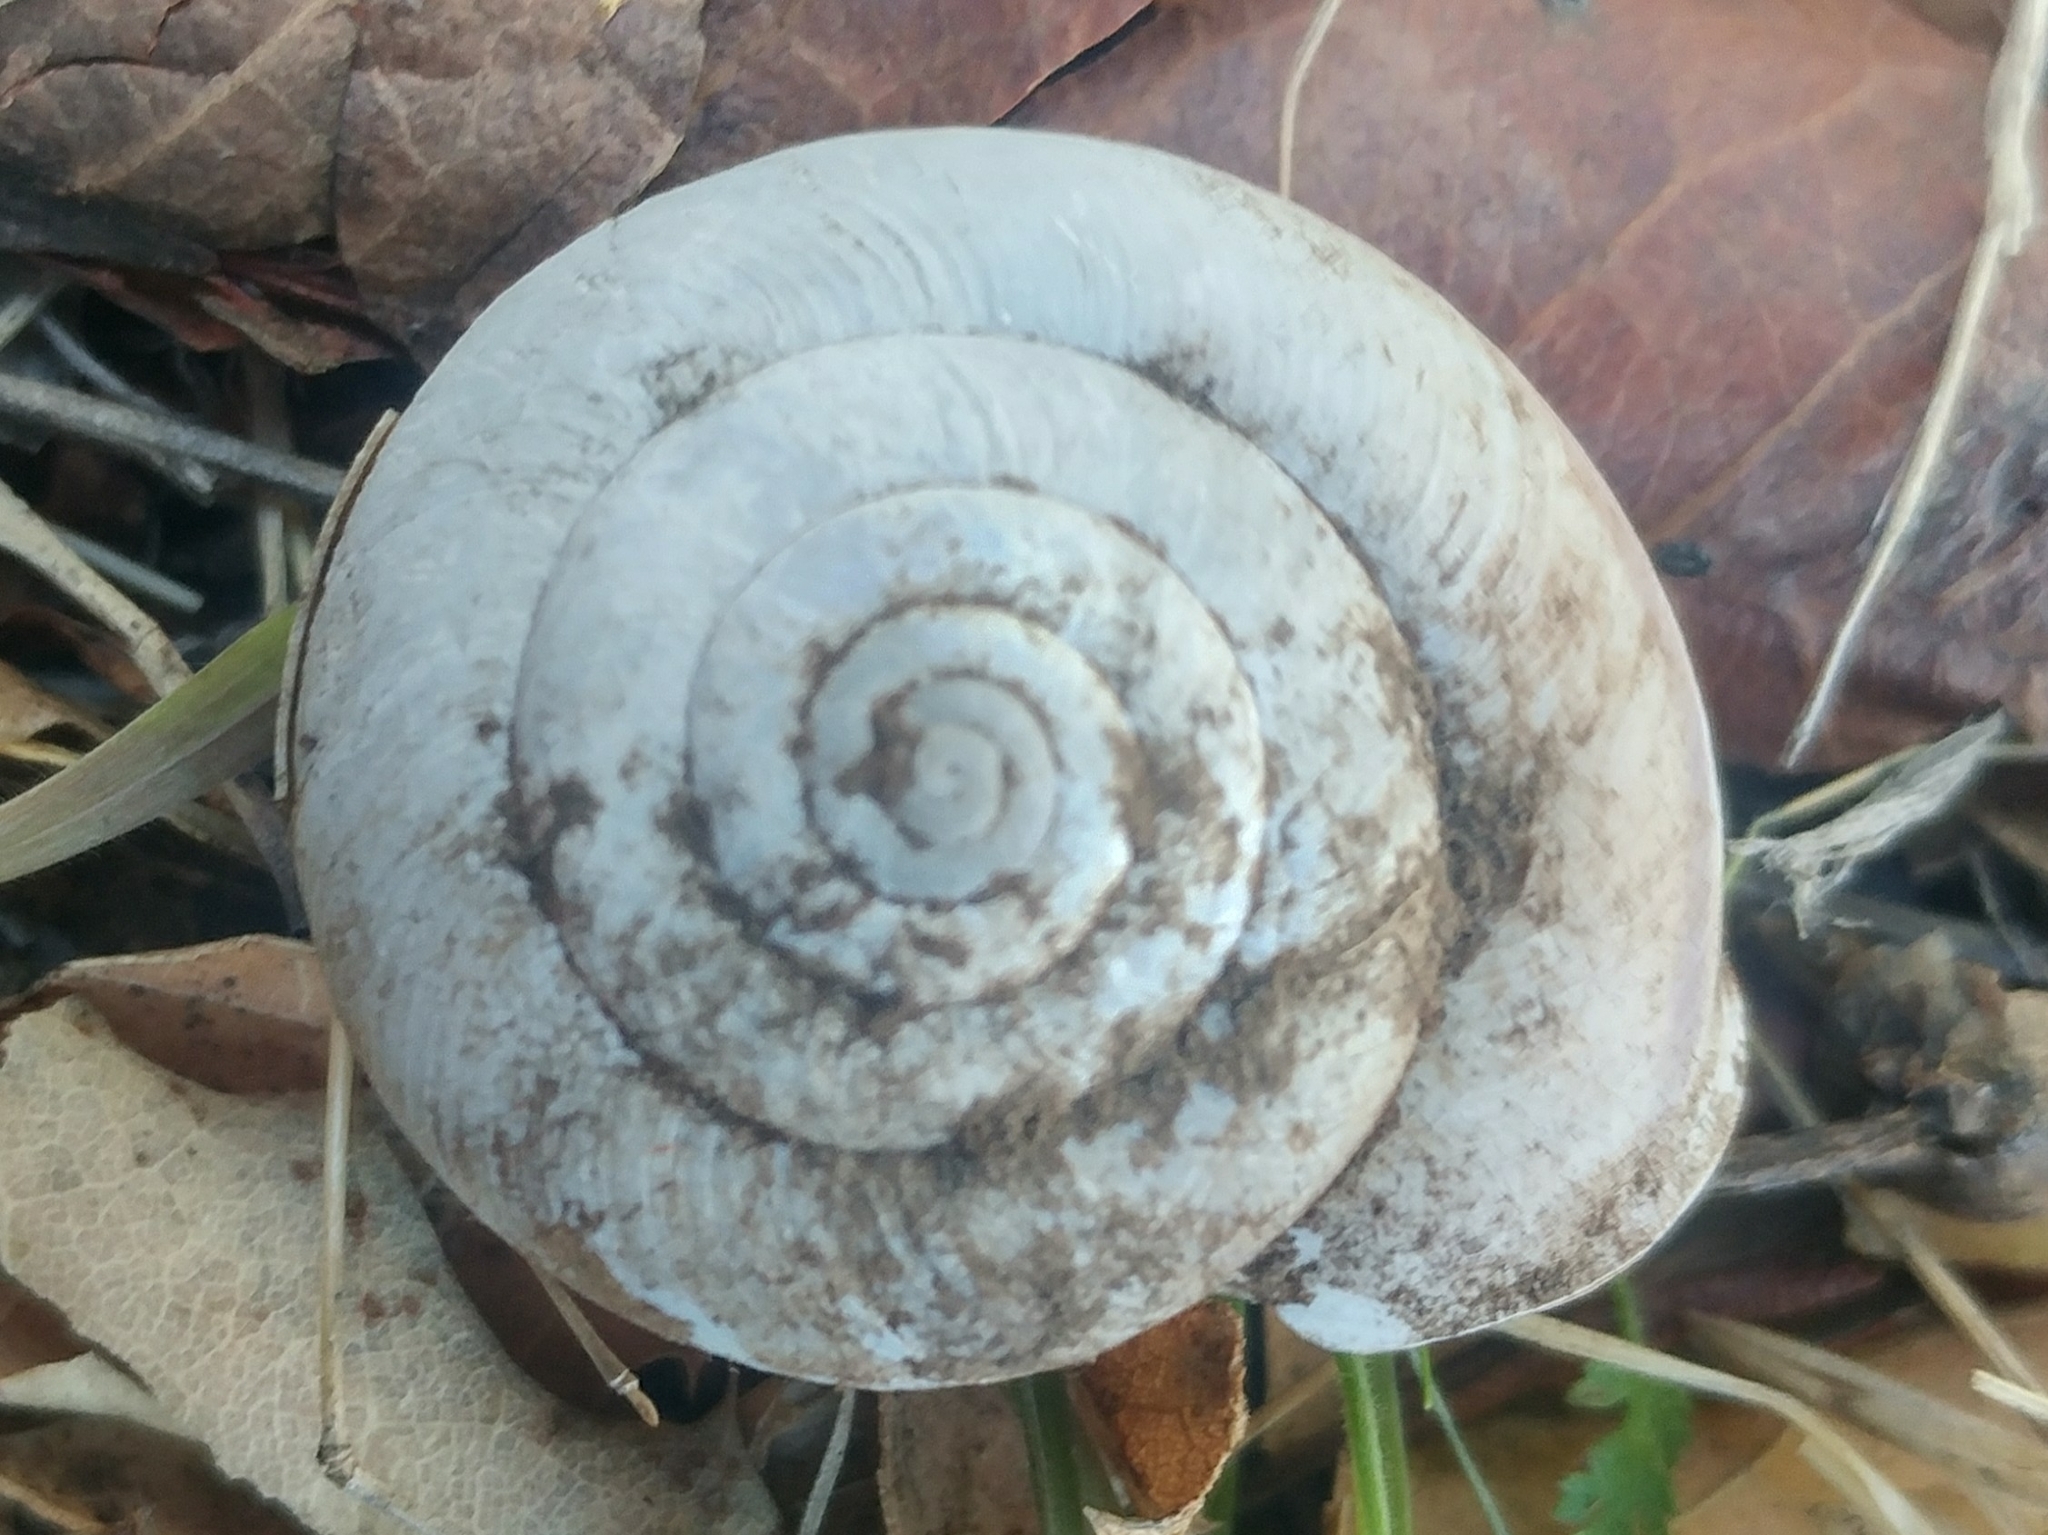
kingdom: Animalia
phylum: Mollusca
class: Gastropoda
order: Stylommatophora
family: Xanthonychidae
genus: Helminthoglypta
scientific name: Helminthoglypta willetti
